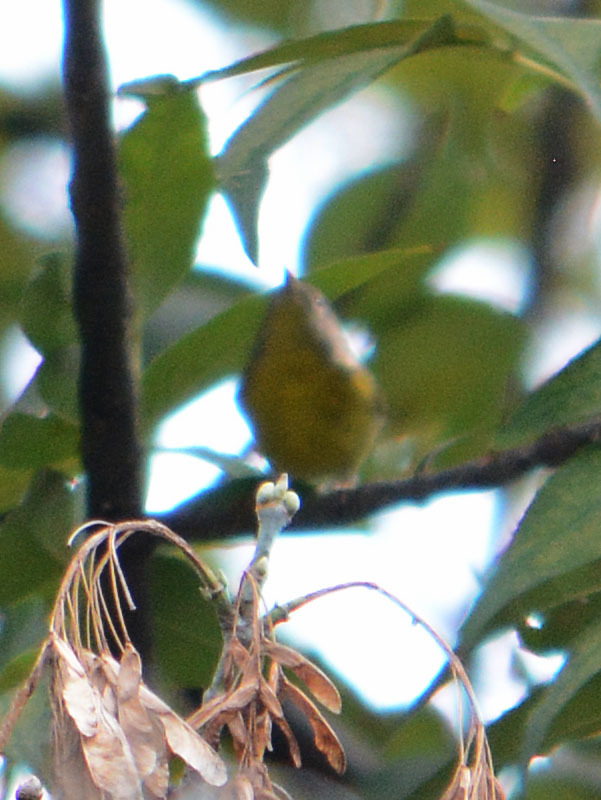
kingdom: Animalia
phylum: Chordata
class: Aves
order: Passeriformes
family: Parulidae
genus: Leiothlypis
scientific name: Leiothlypis ruficapilla
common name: Nashville warbler
